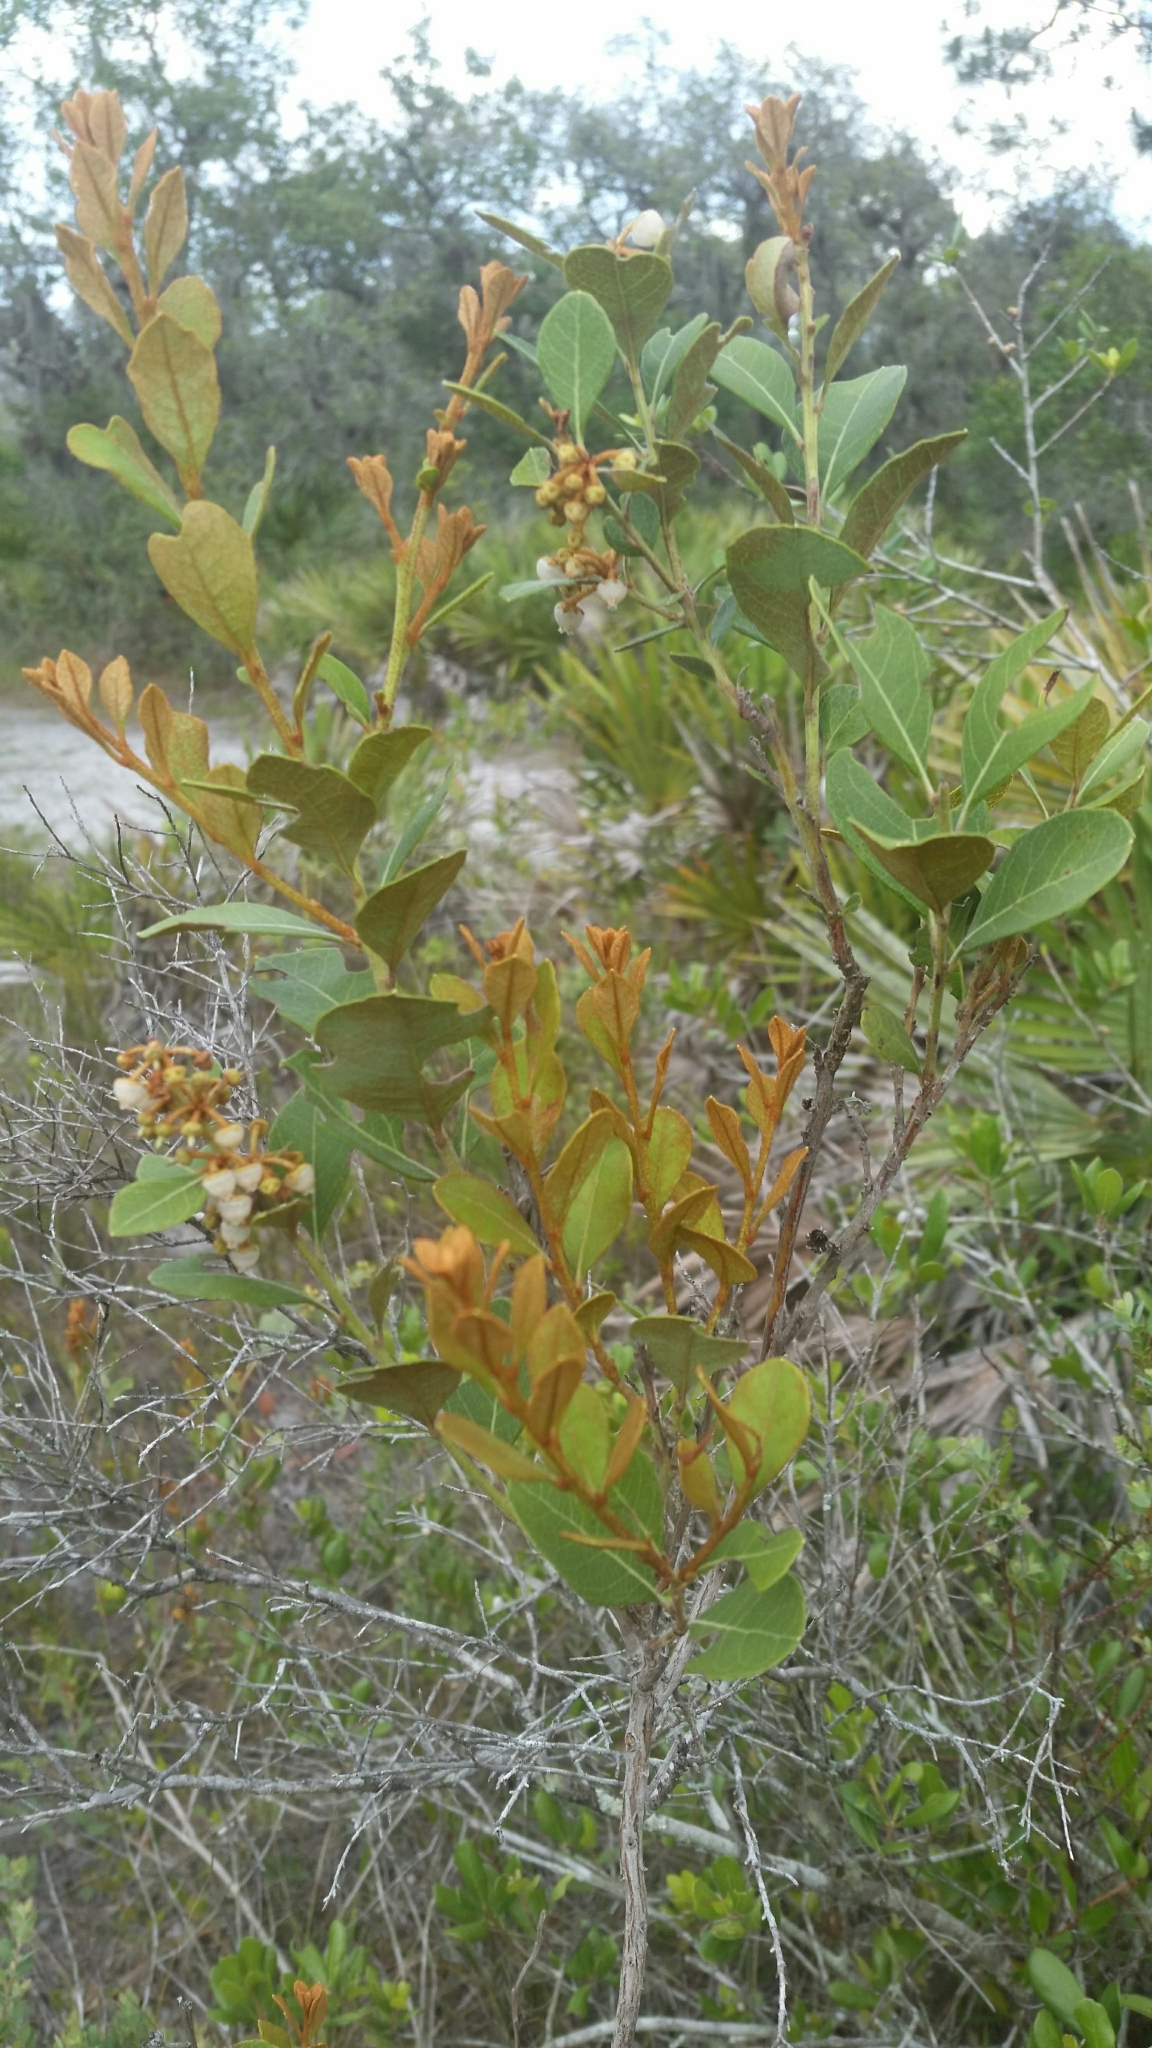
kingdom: Plantae
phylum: Tracheophyta
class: Magnoliopsida
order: Ericales
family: Ericaceae
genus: Lyonia
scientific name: Lyonia fruticosa
